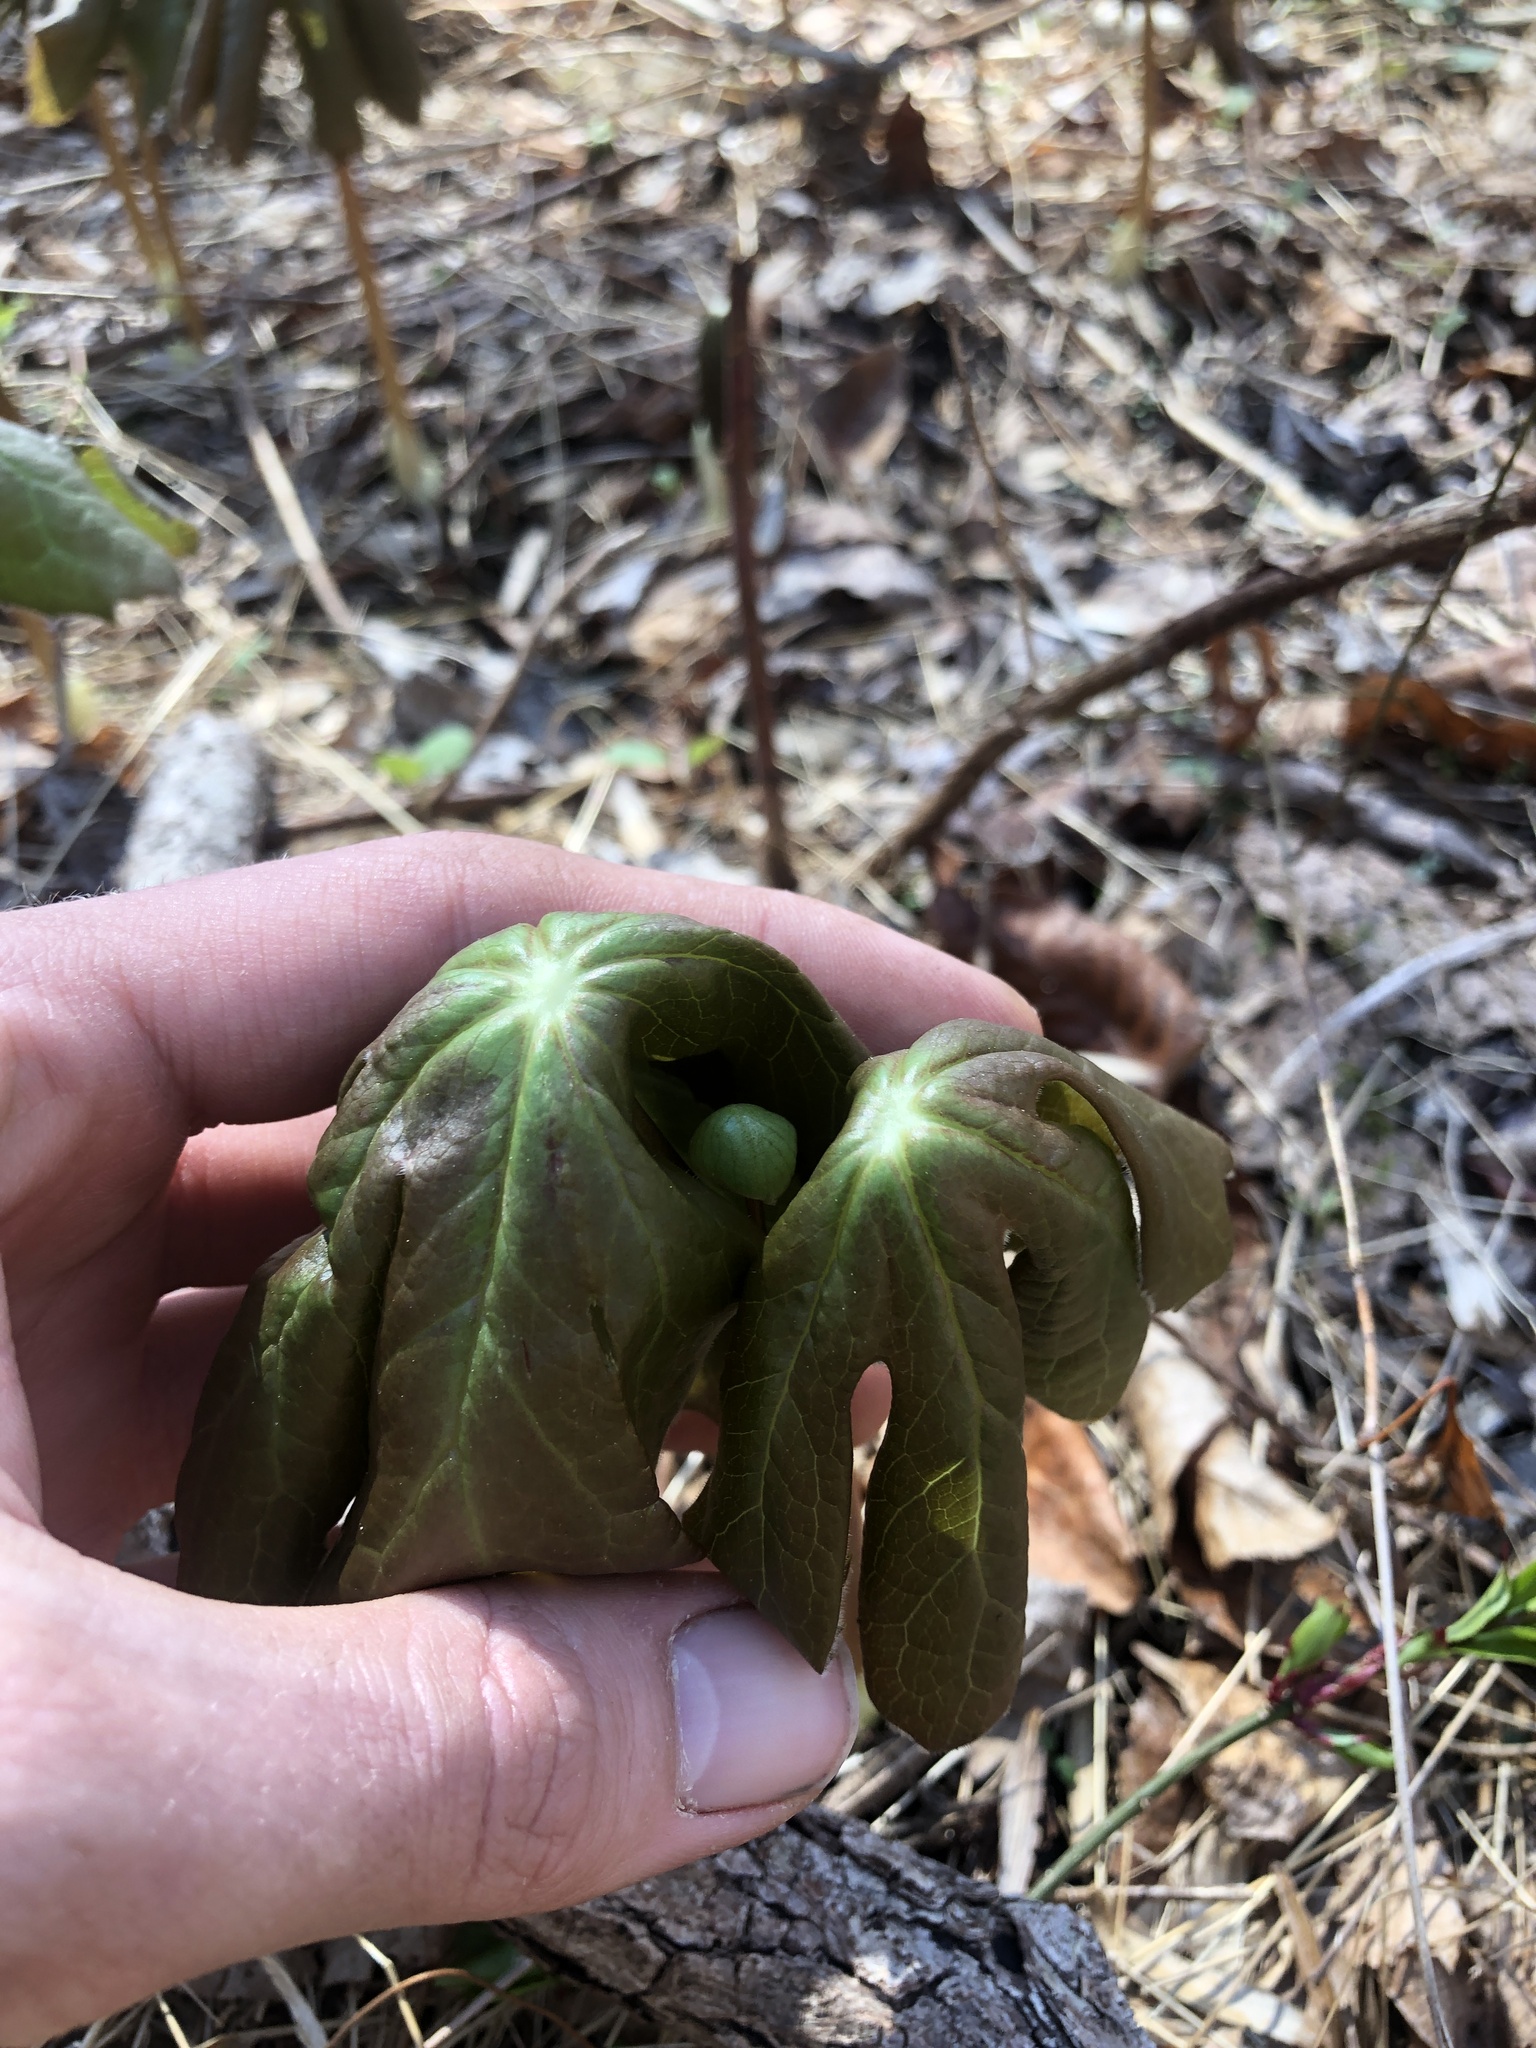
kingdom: Plantae
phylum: Tracheophyta
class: Magnoliopsida
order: Ranunculales
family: Berberidaceae
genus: Podophyllum
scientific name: Podophyllum peltatum
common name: Wild mandrake
